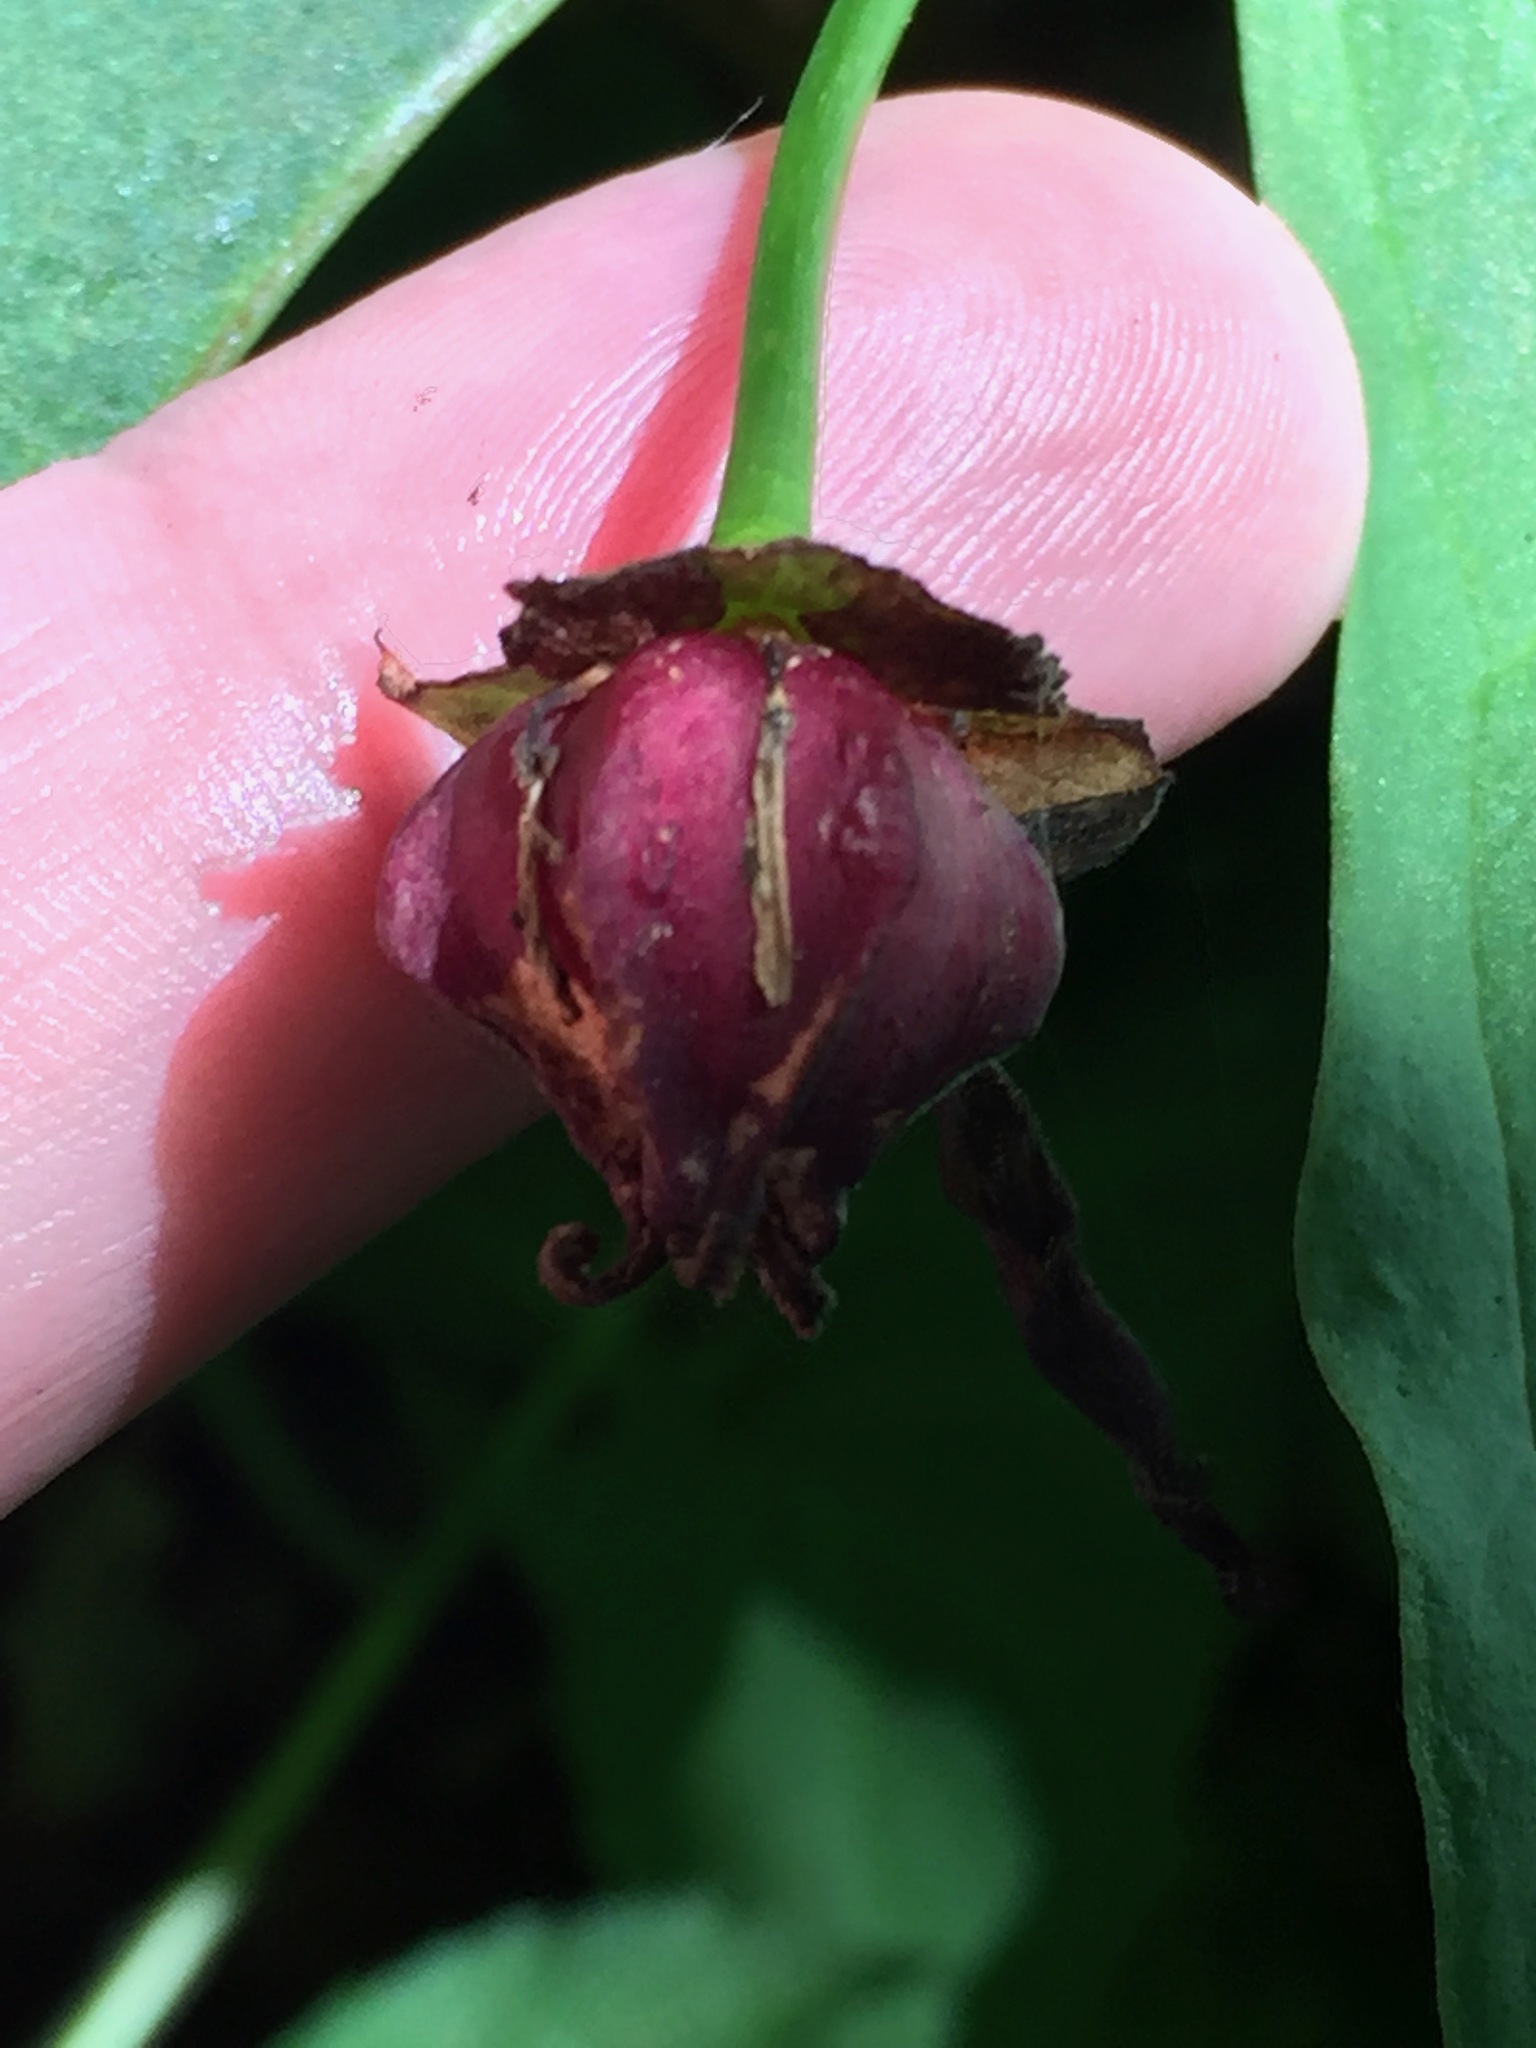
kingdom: Plantae
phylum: Tracheophyta
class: Liliopsida
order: Liliales
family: Melanthiaceae
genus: Trillium
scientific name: Trillium erectum
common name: Purple trillium
